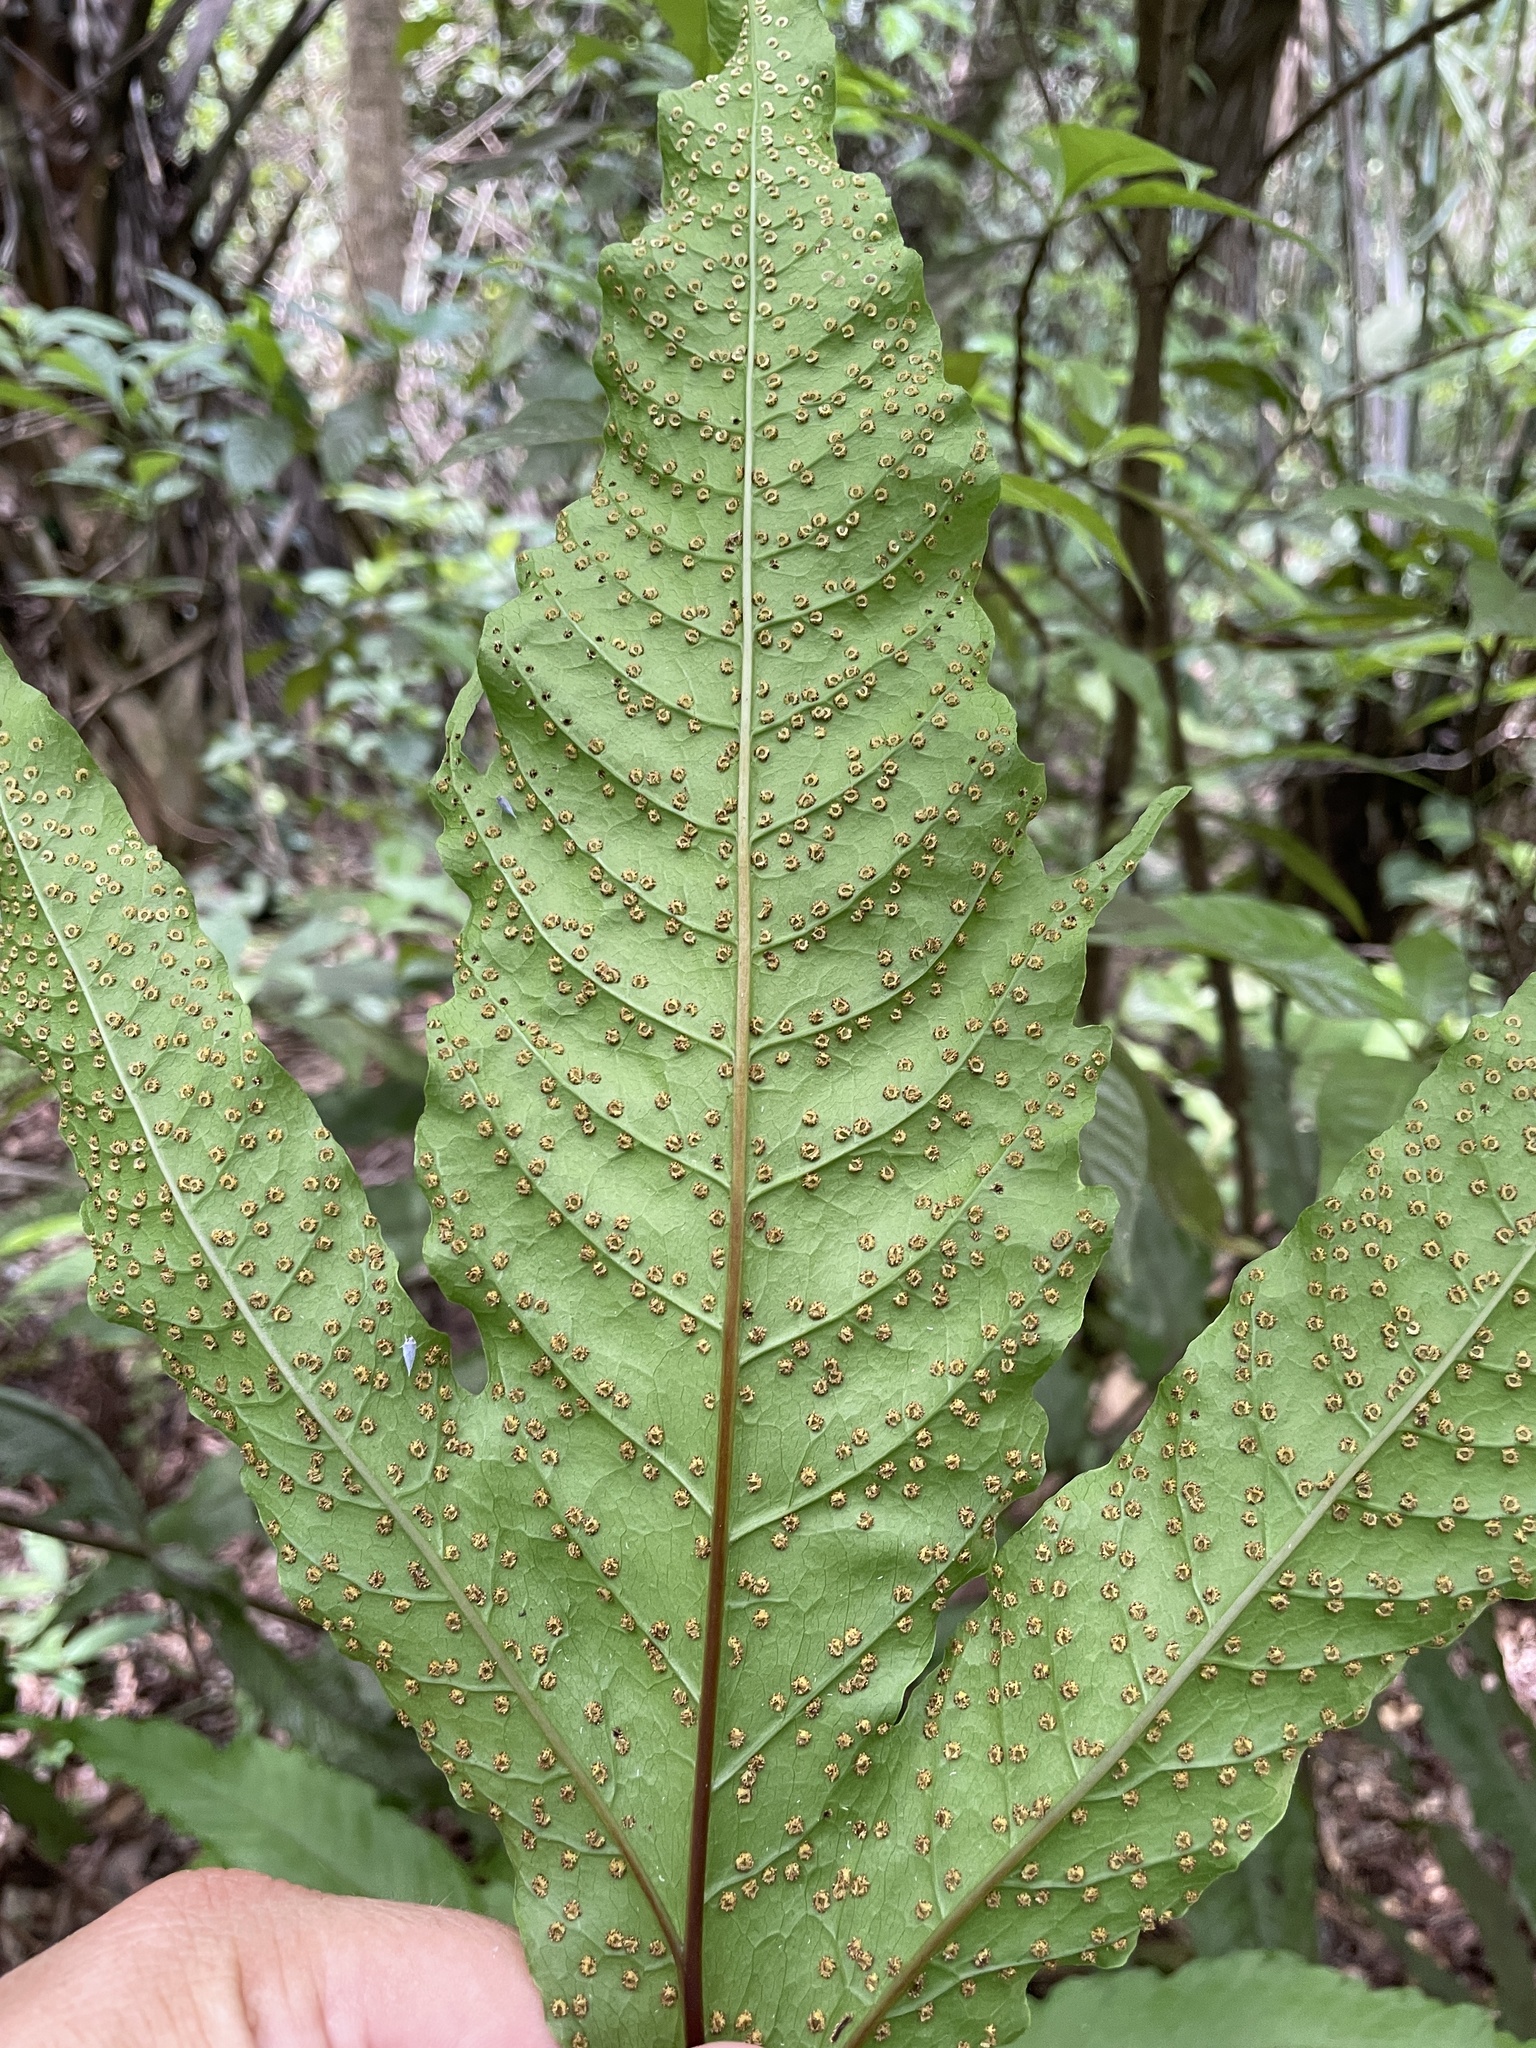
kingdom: Plantae
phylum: Tracheophyta
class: Polypodiopsida
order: Polypodiales
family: Tectariaceae
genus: Tectaria
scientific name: Tectaria incisa
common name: Incised halberd fern
